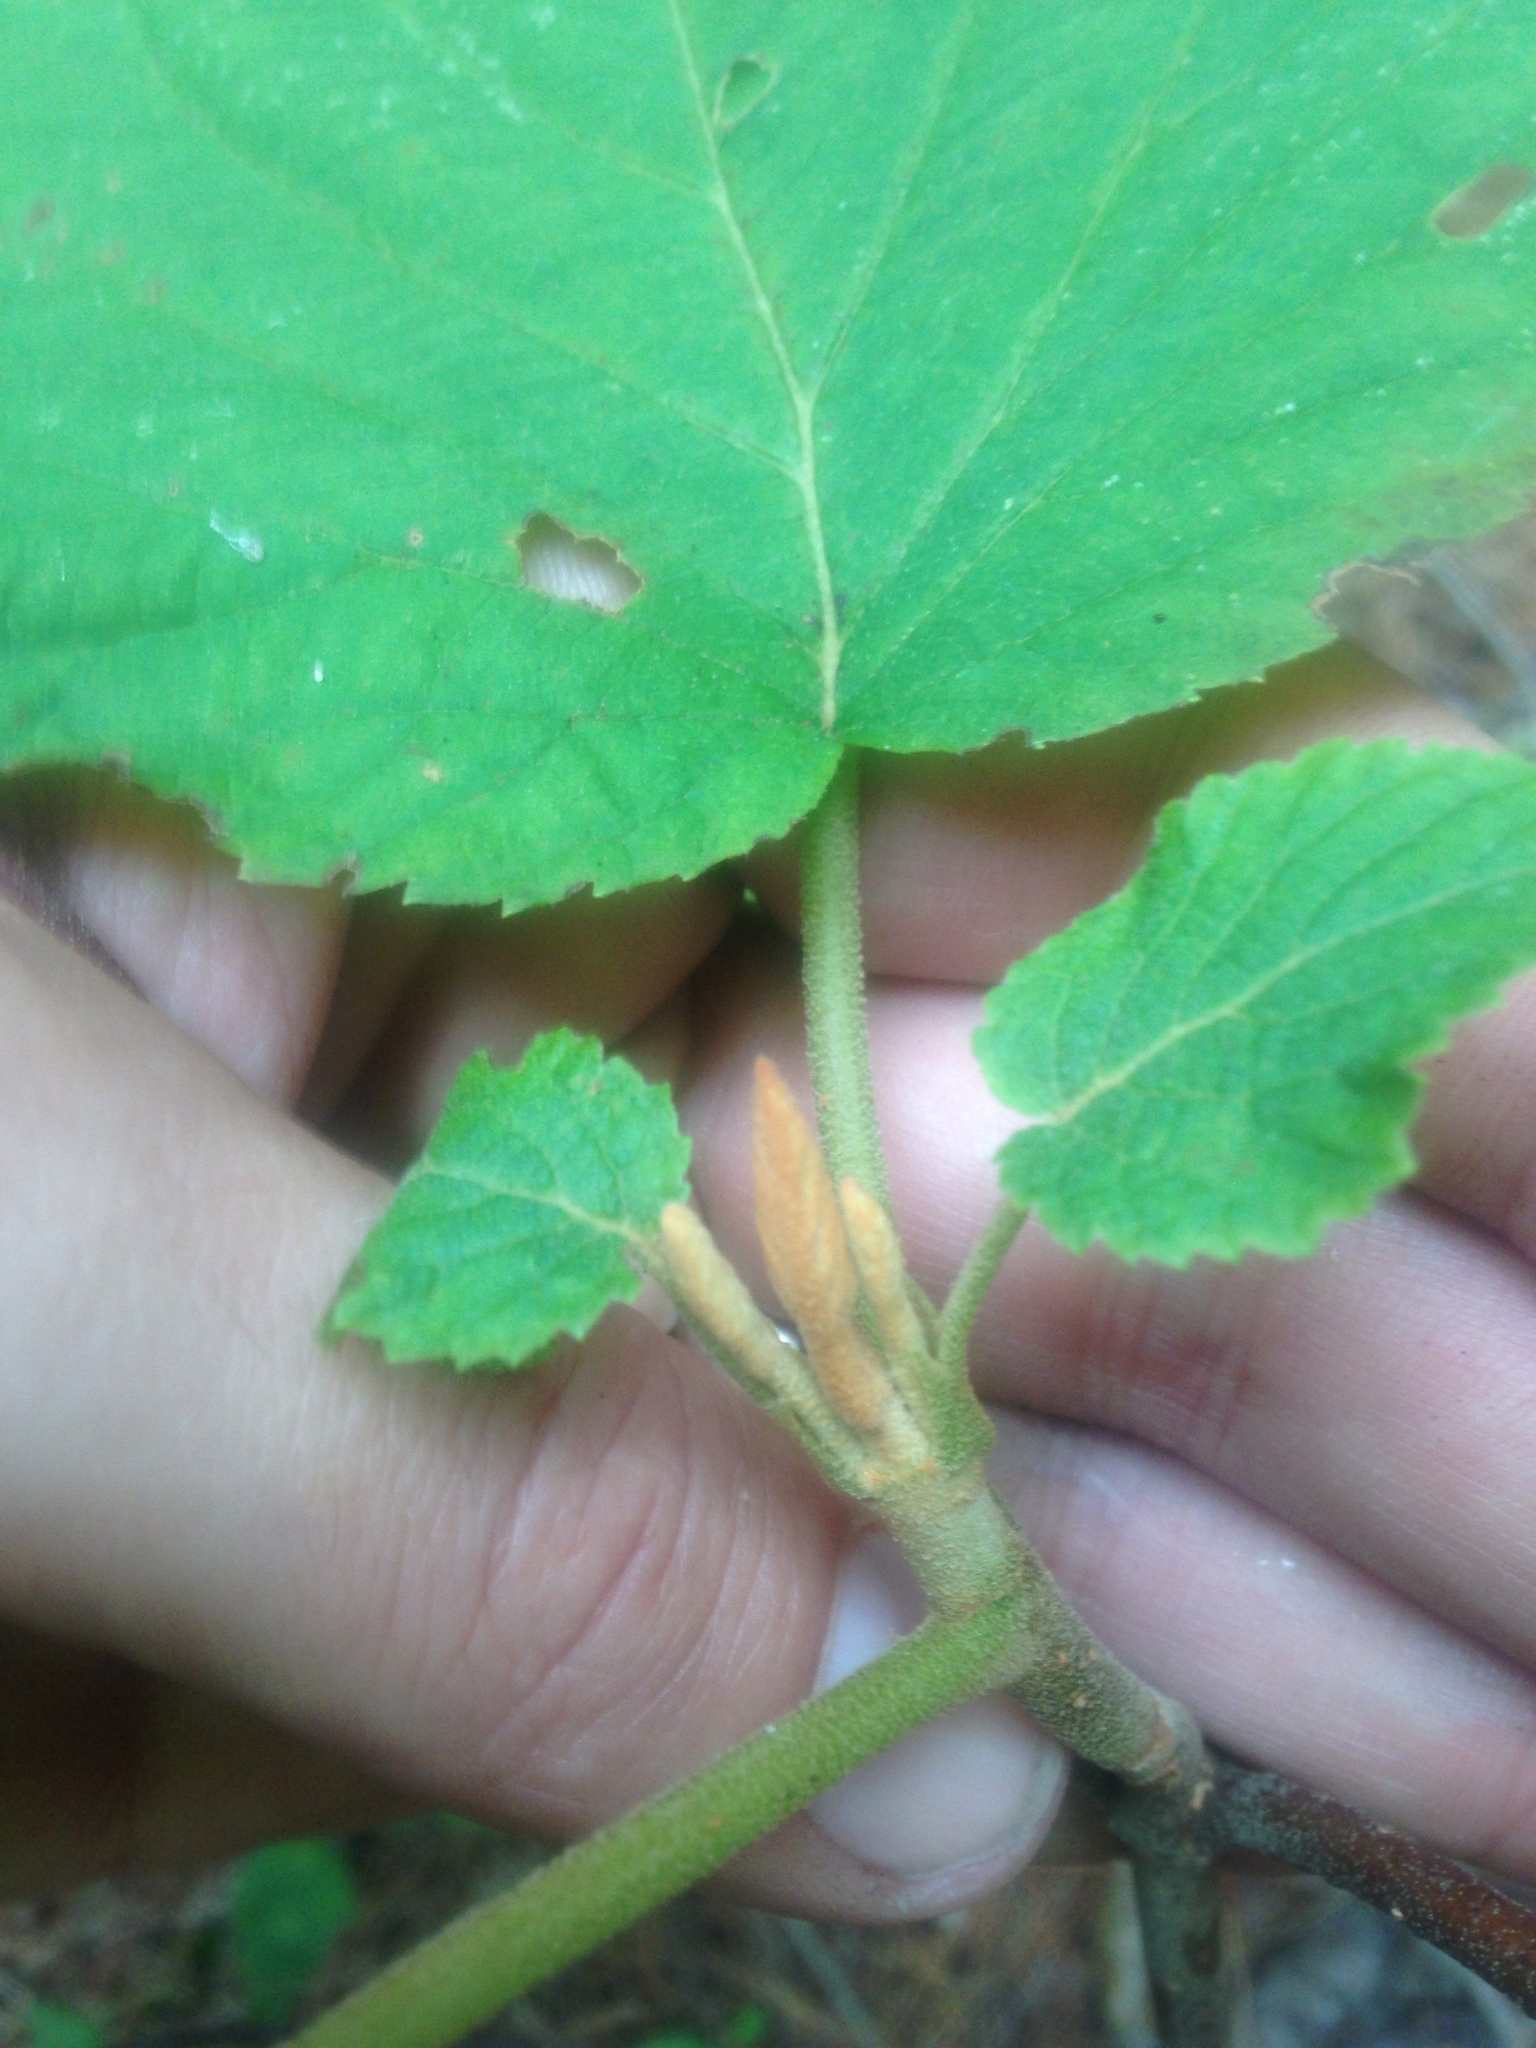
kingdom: Plantae
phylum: Tracheophyta
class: Magnoliopsida
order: Dipsacales
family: Viburnaceae
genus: Viburnum
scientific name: Viburnum lantanoides
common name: Hobblebush
